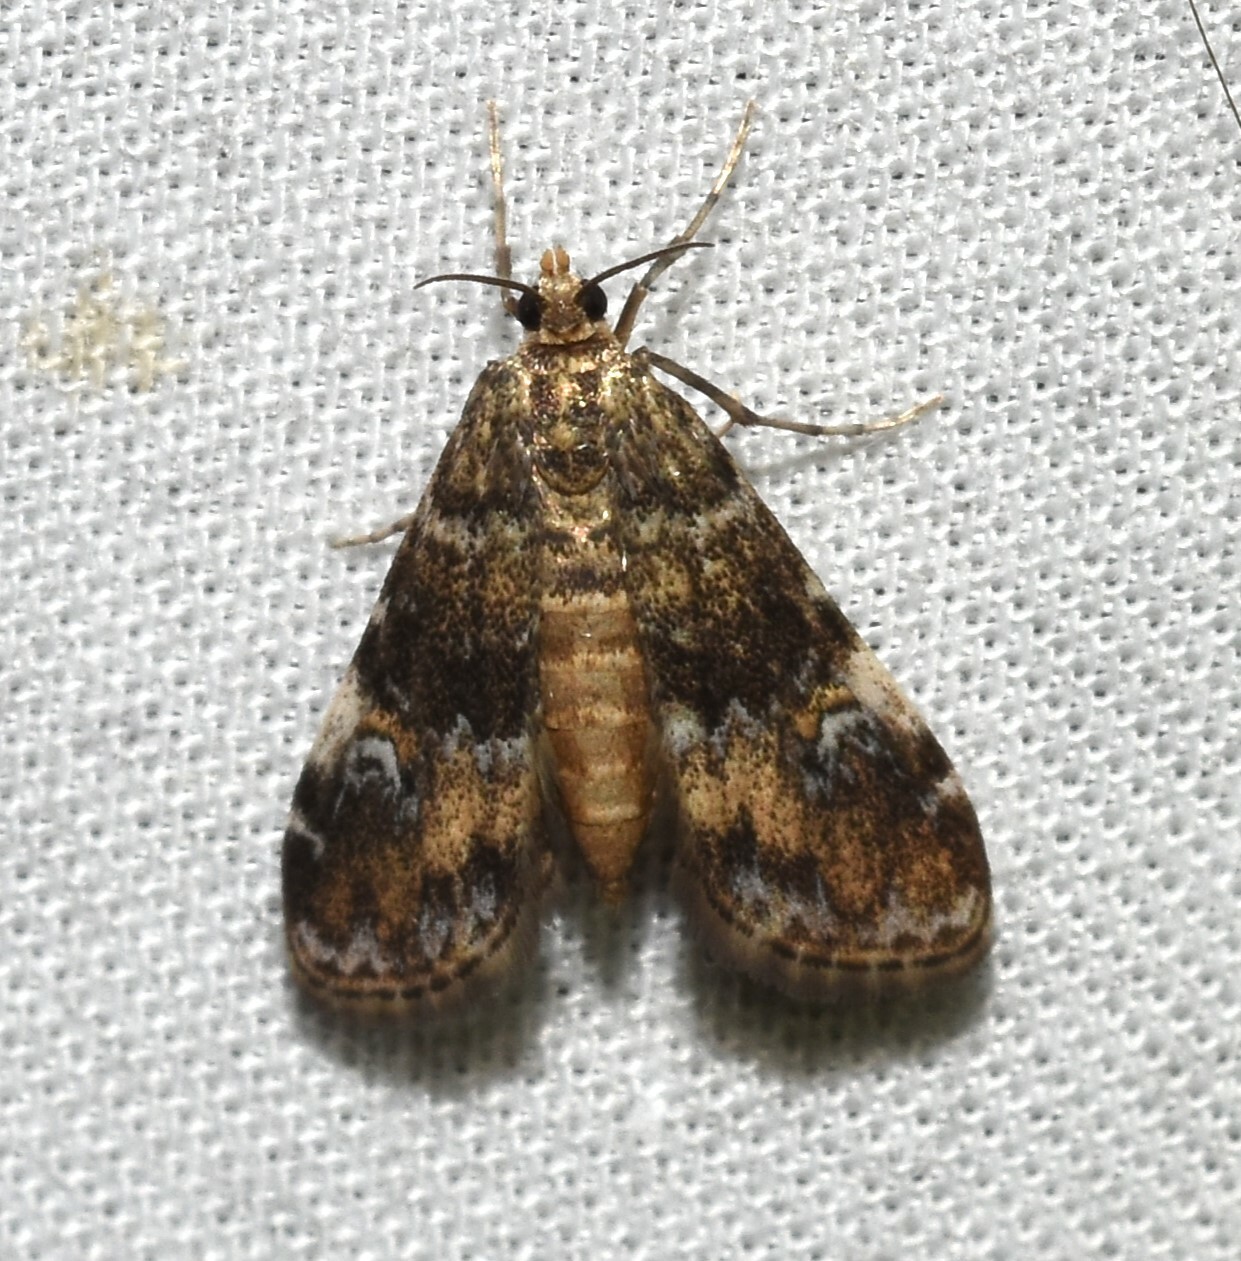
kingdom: Animalia
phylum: Arthropoda
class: Insecta
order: Lepidoptera
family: Crambidae
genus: Elophila
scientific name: Elophila obliteralis
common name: Waterlily leafcutter moth
